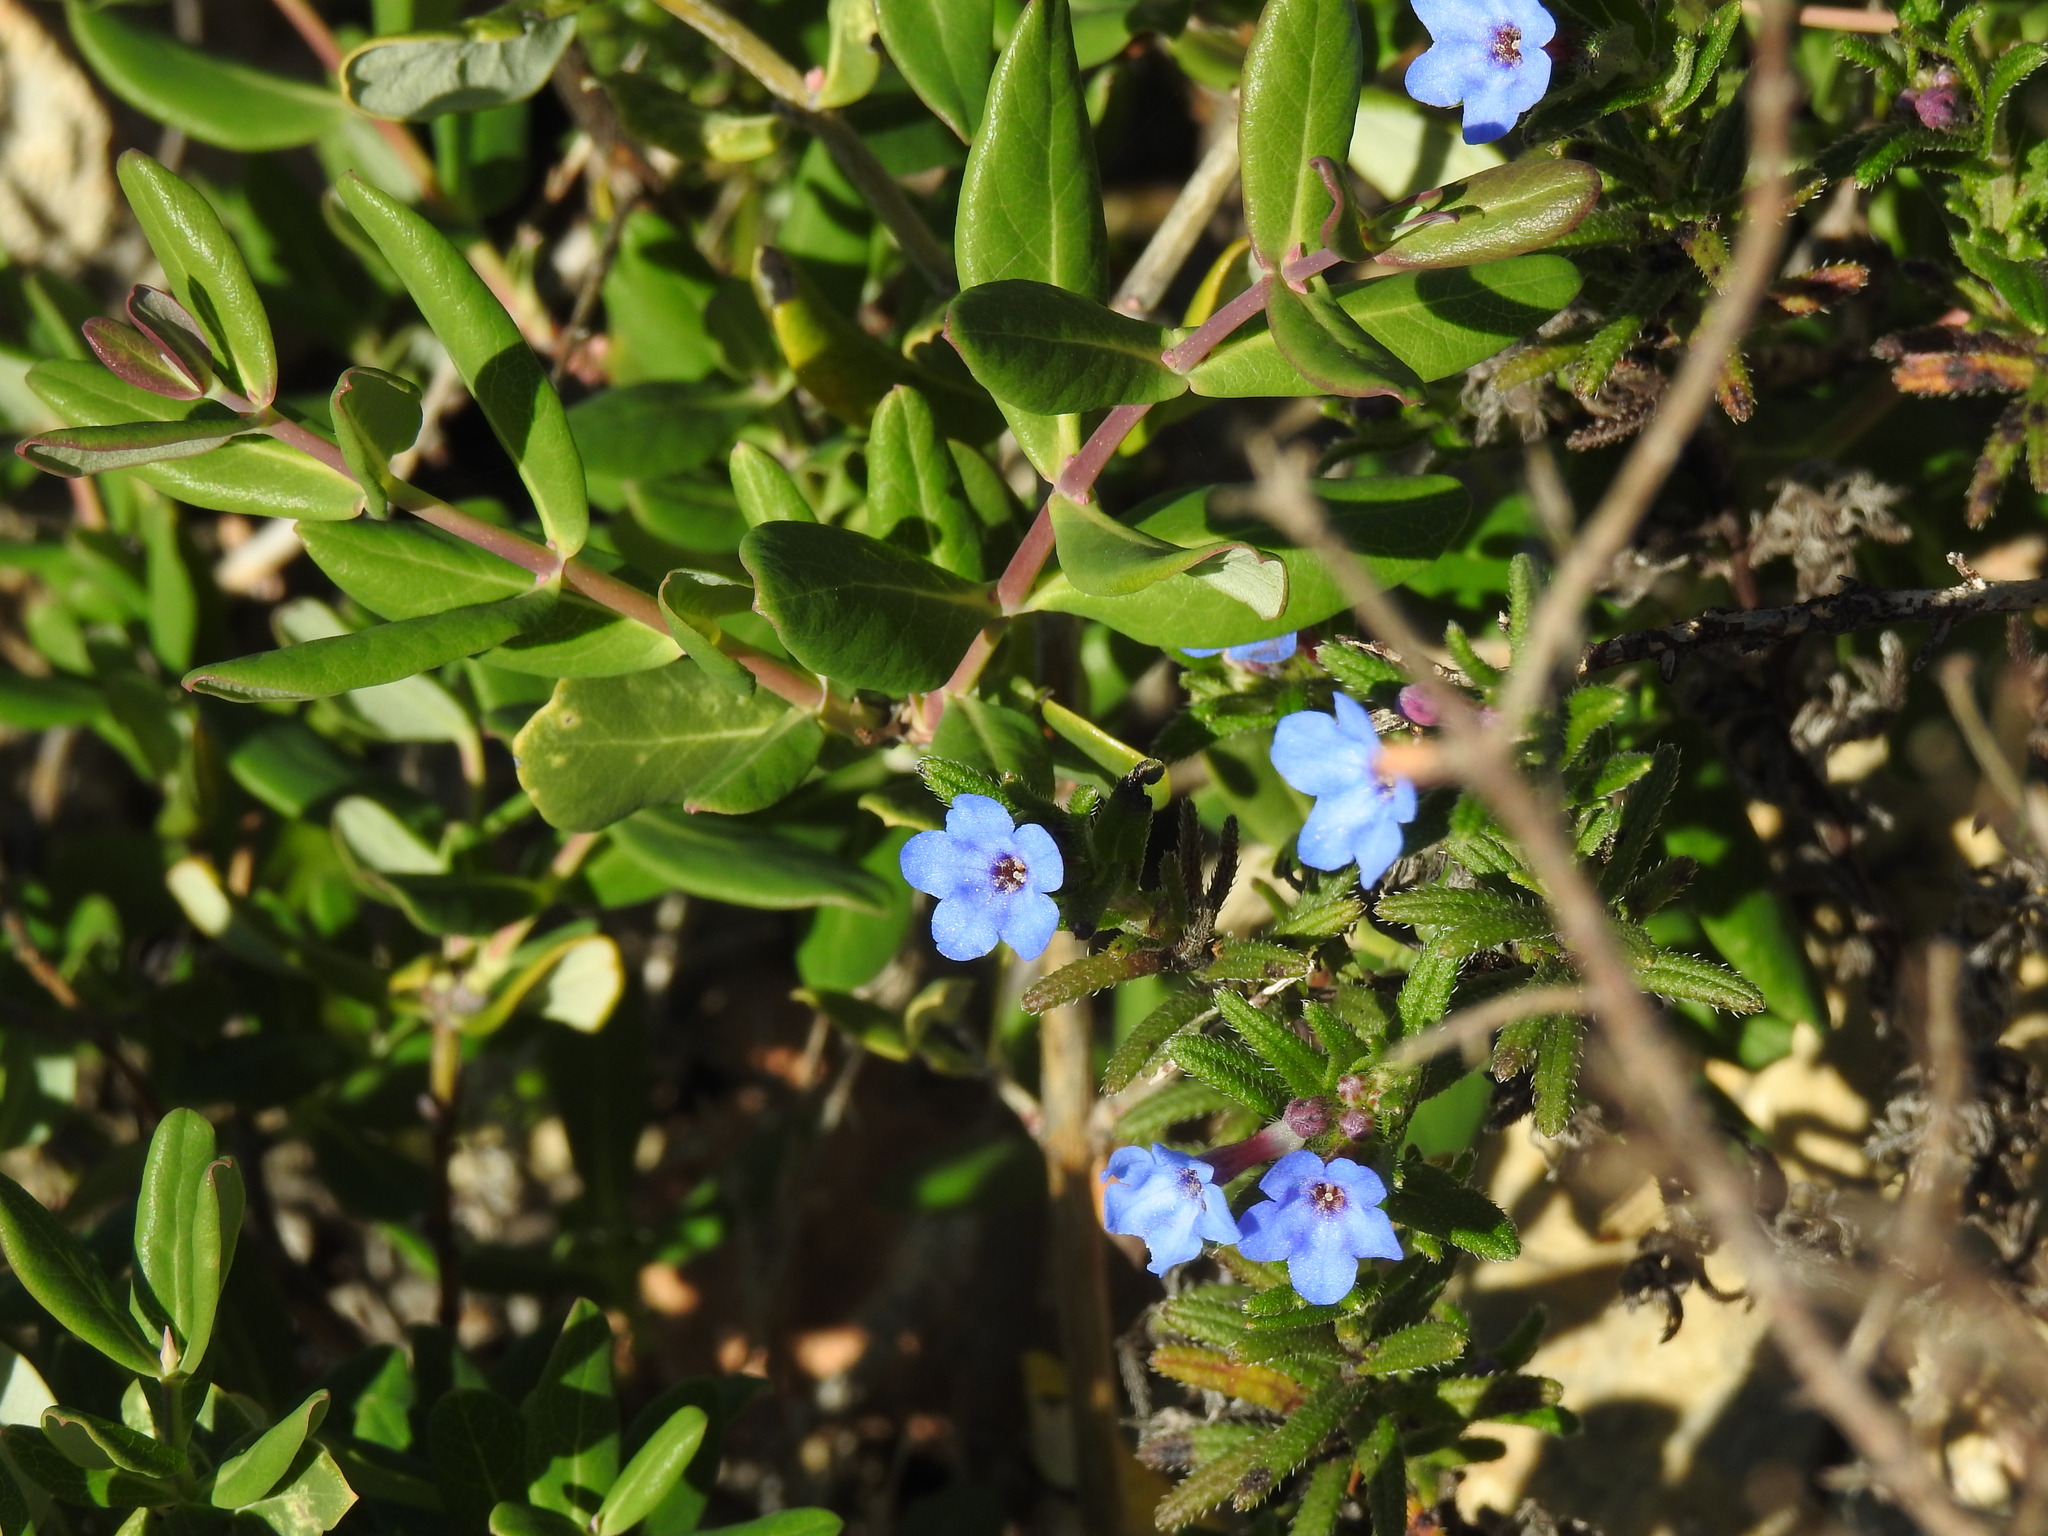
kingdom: Plantae
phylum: Tracheophyta
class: Magnoliopsida
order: Boraginales
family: Boraginaceae
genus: Glandora
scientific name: Glandora prostrata
